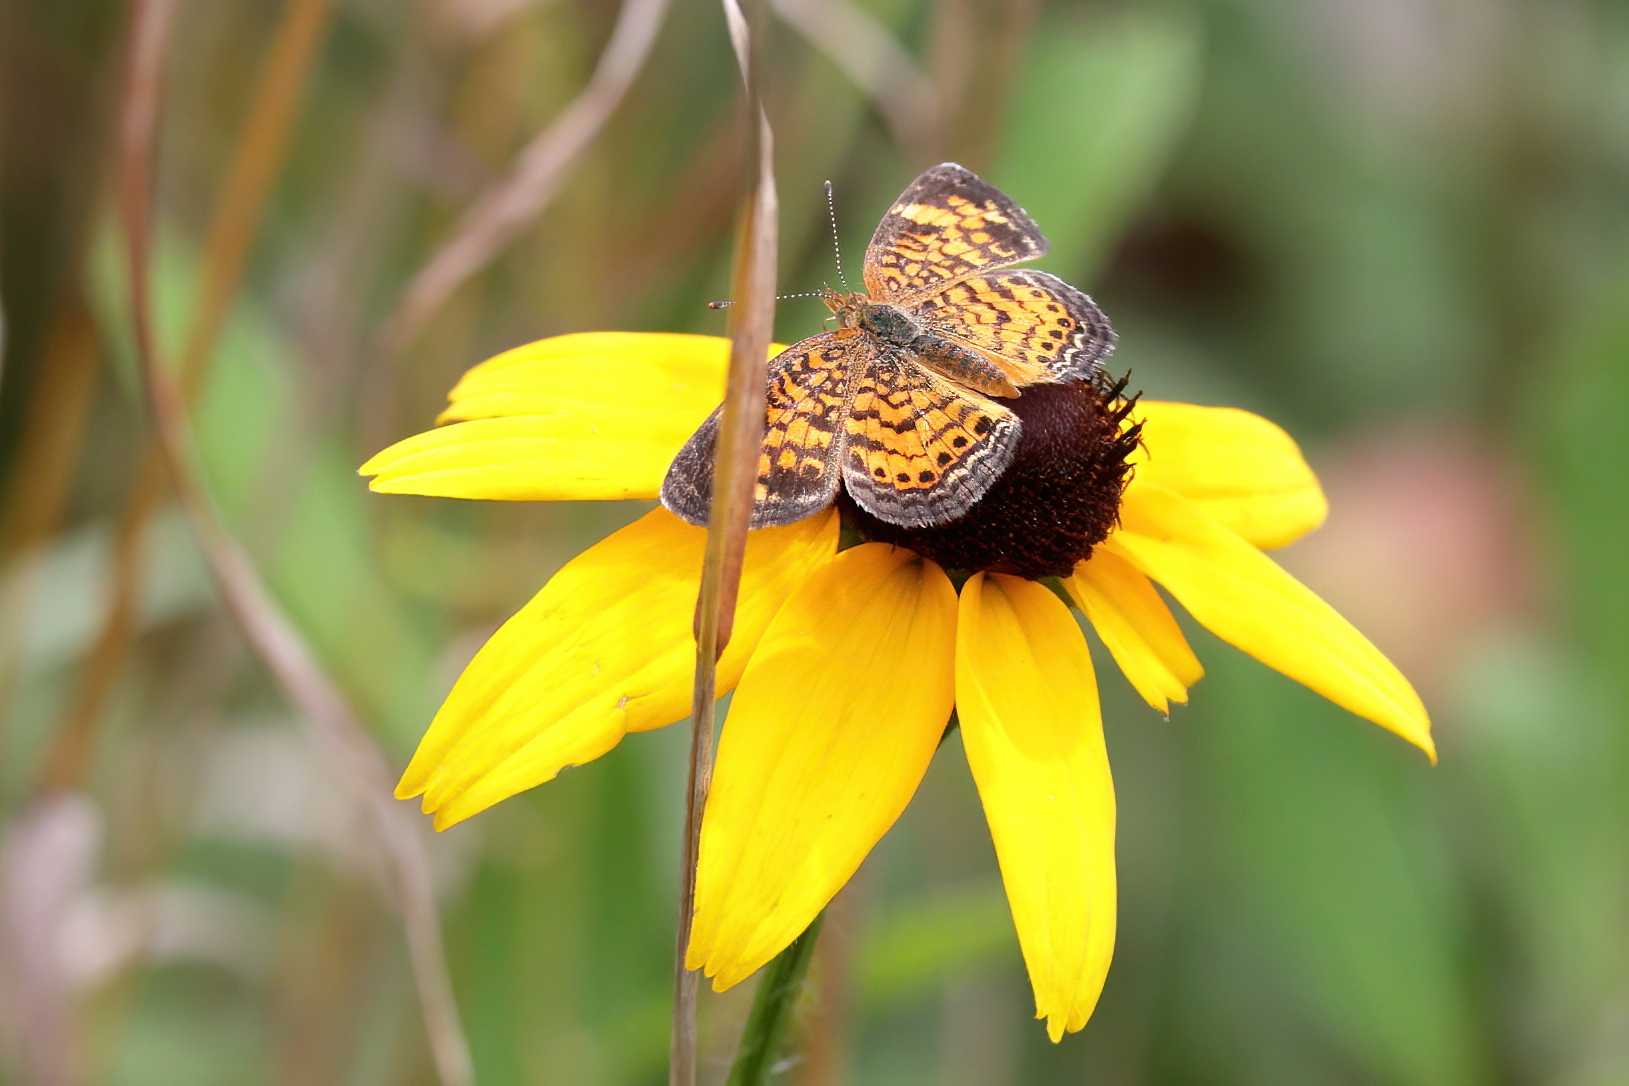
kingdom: Animalia
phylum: Arthropoda
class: Insecta
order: Lepidoptera
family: Nymphalidae
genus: Phyciodes
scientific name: Phyciodes tharos
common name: Pearl crescent
